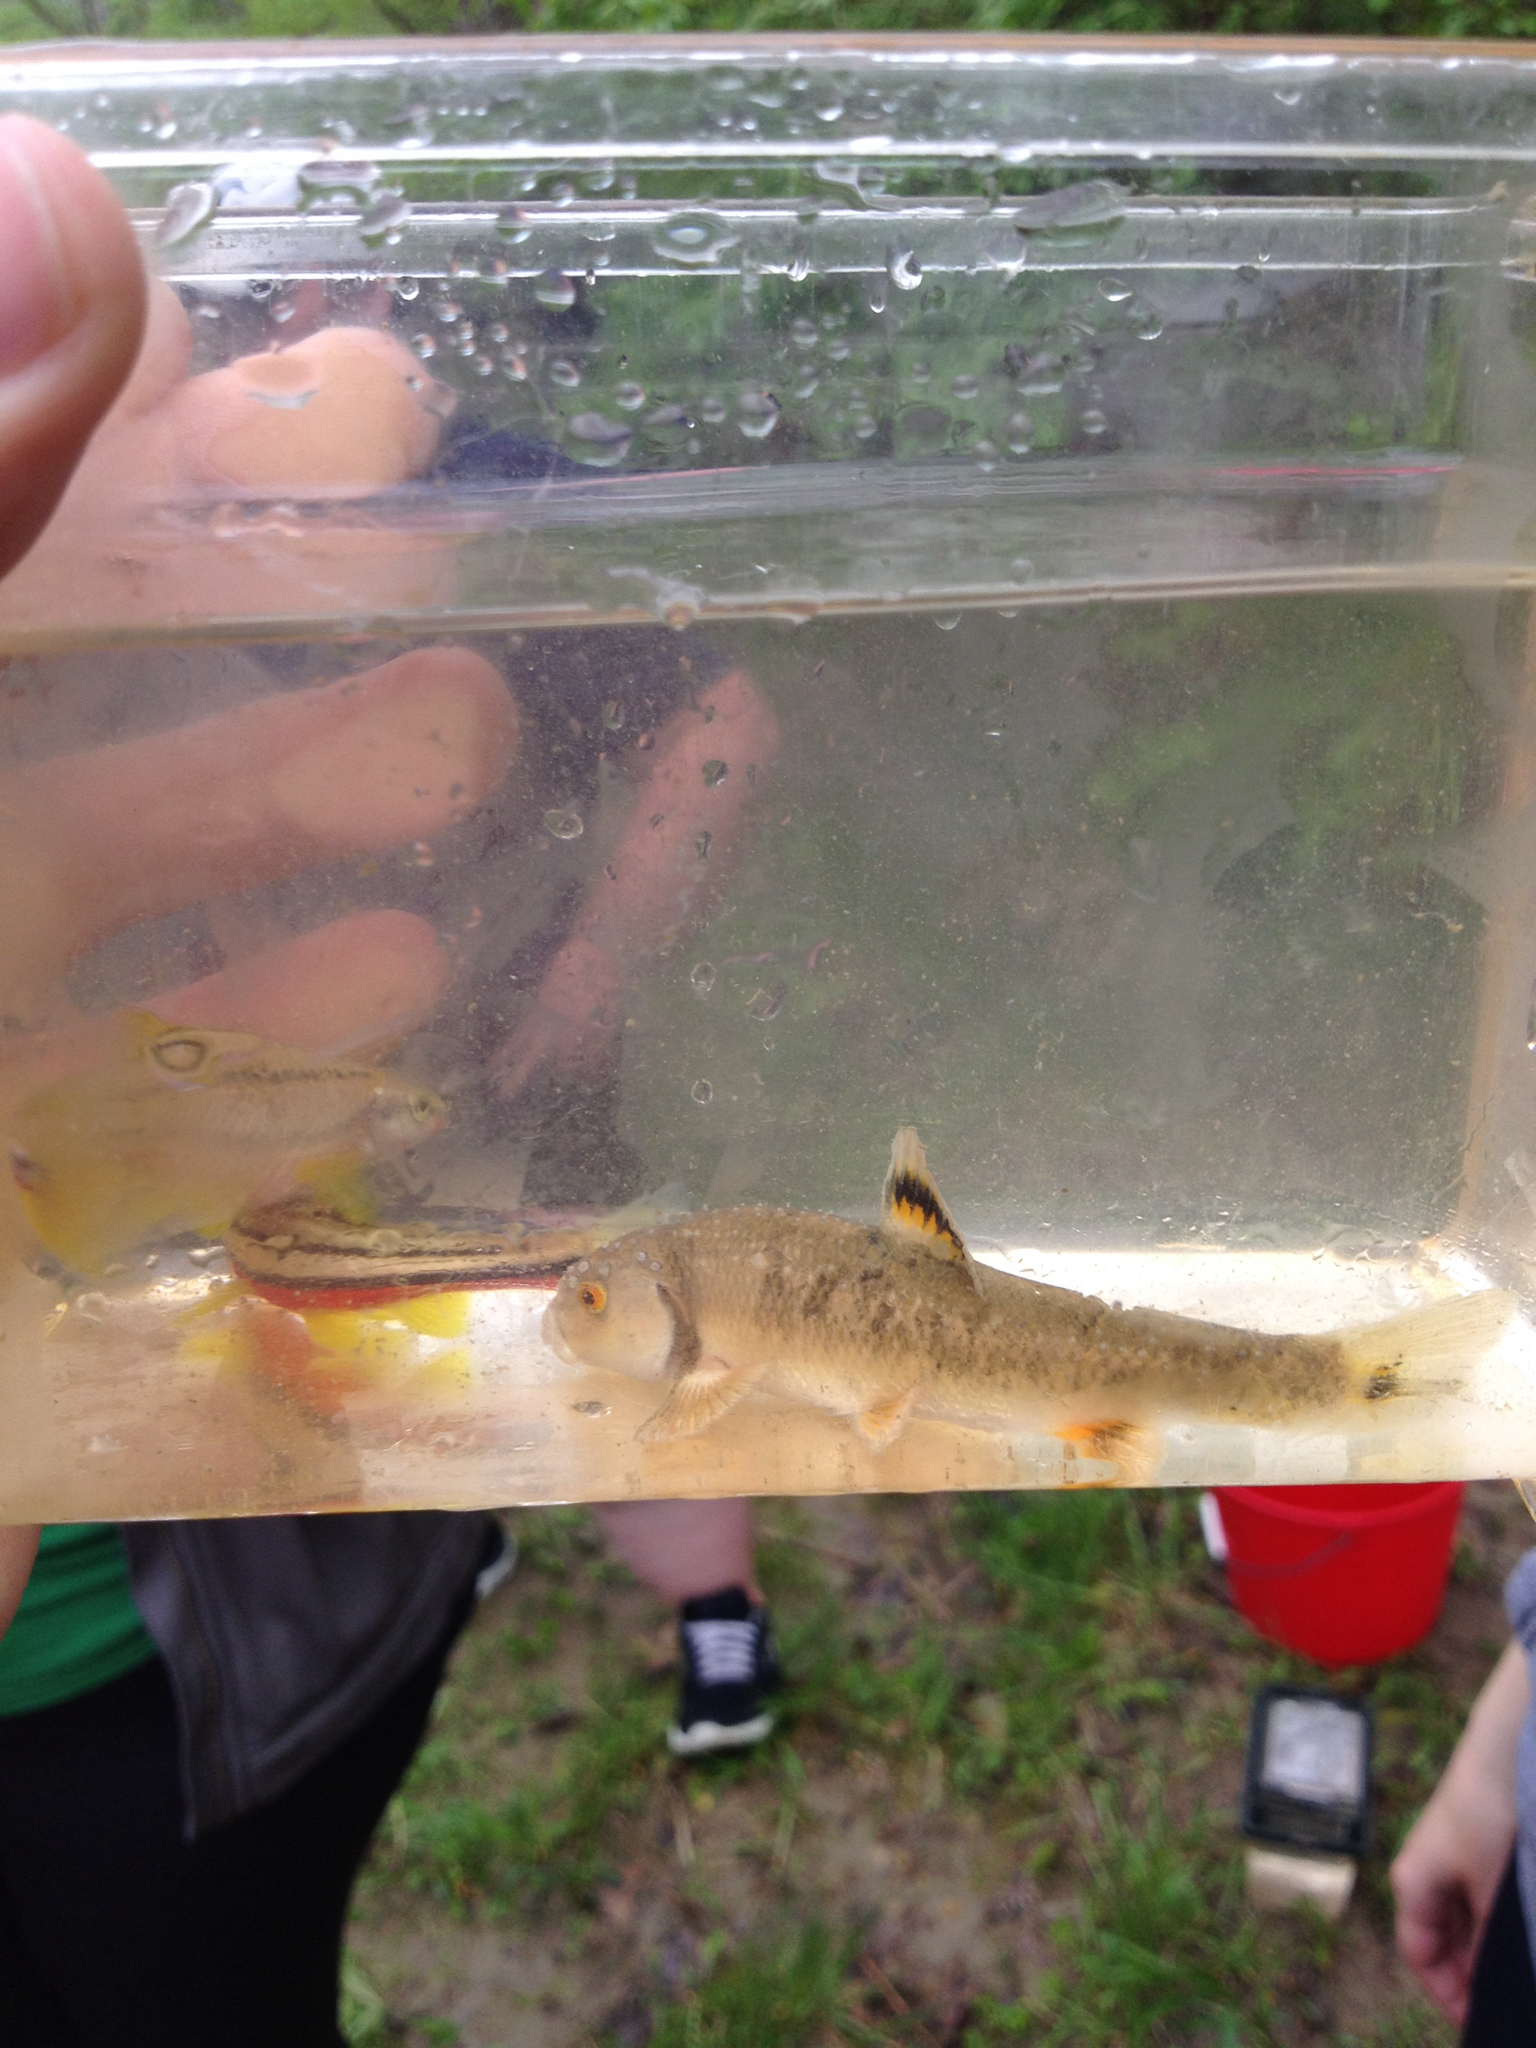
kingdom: Animalia
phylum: Chordata
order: Cypriniformes
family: Cyprinidae
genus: Campostoma
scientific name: Campostoma anomalum
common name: Central stoneroller
